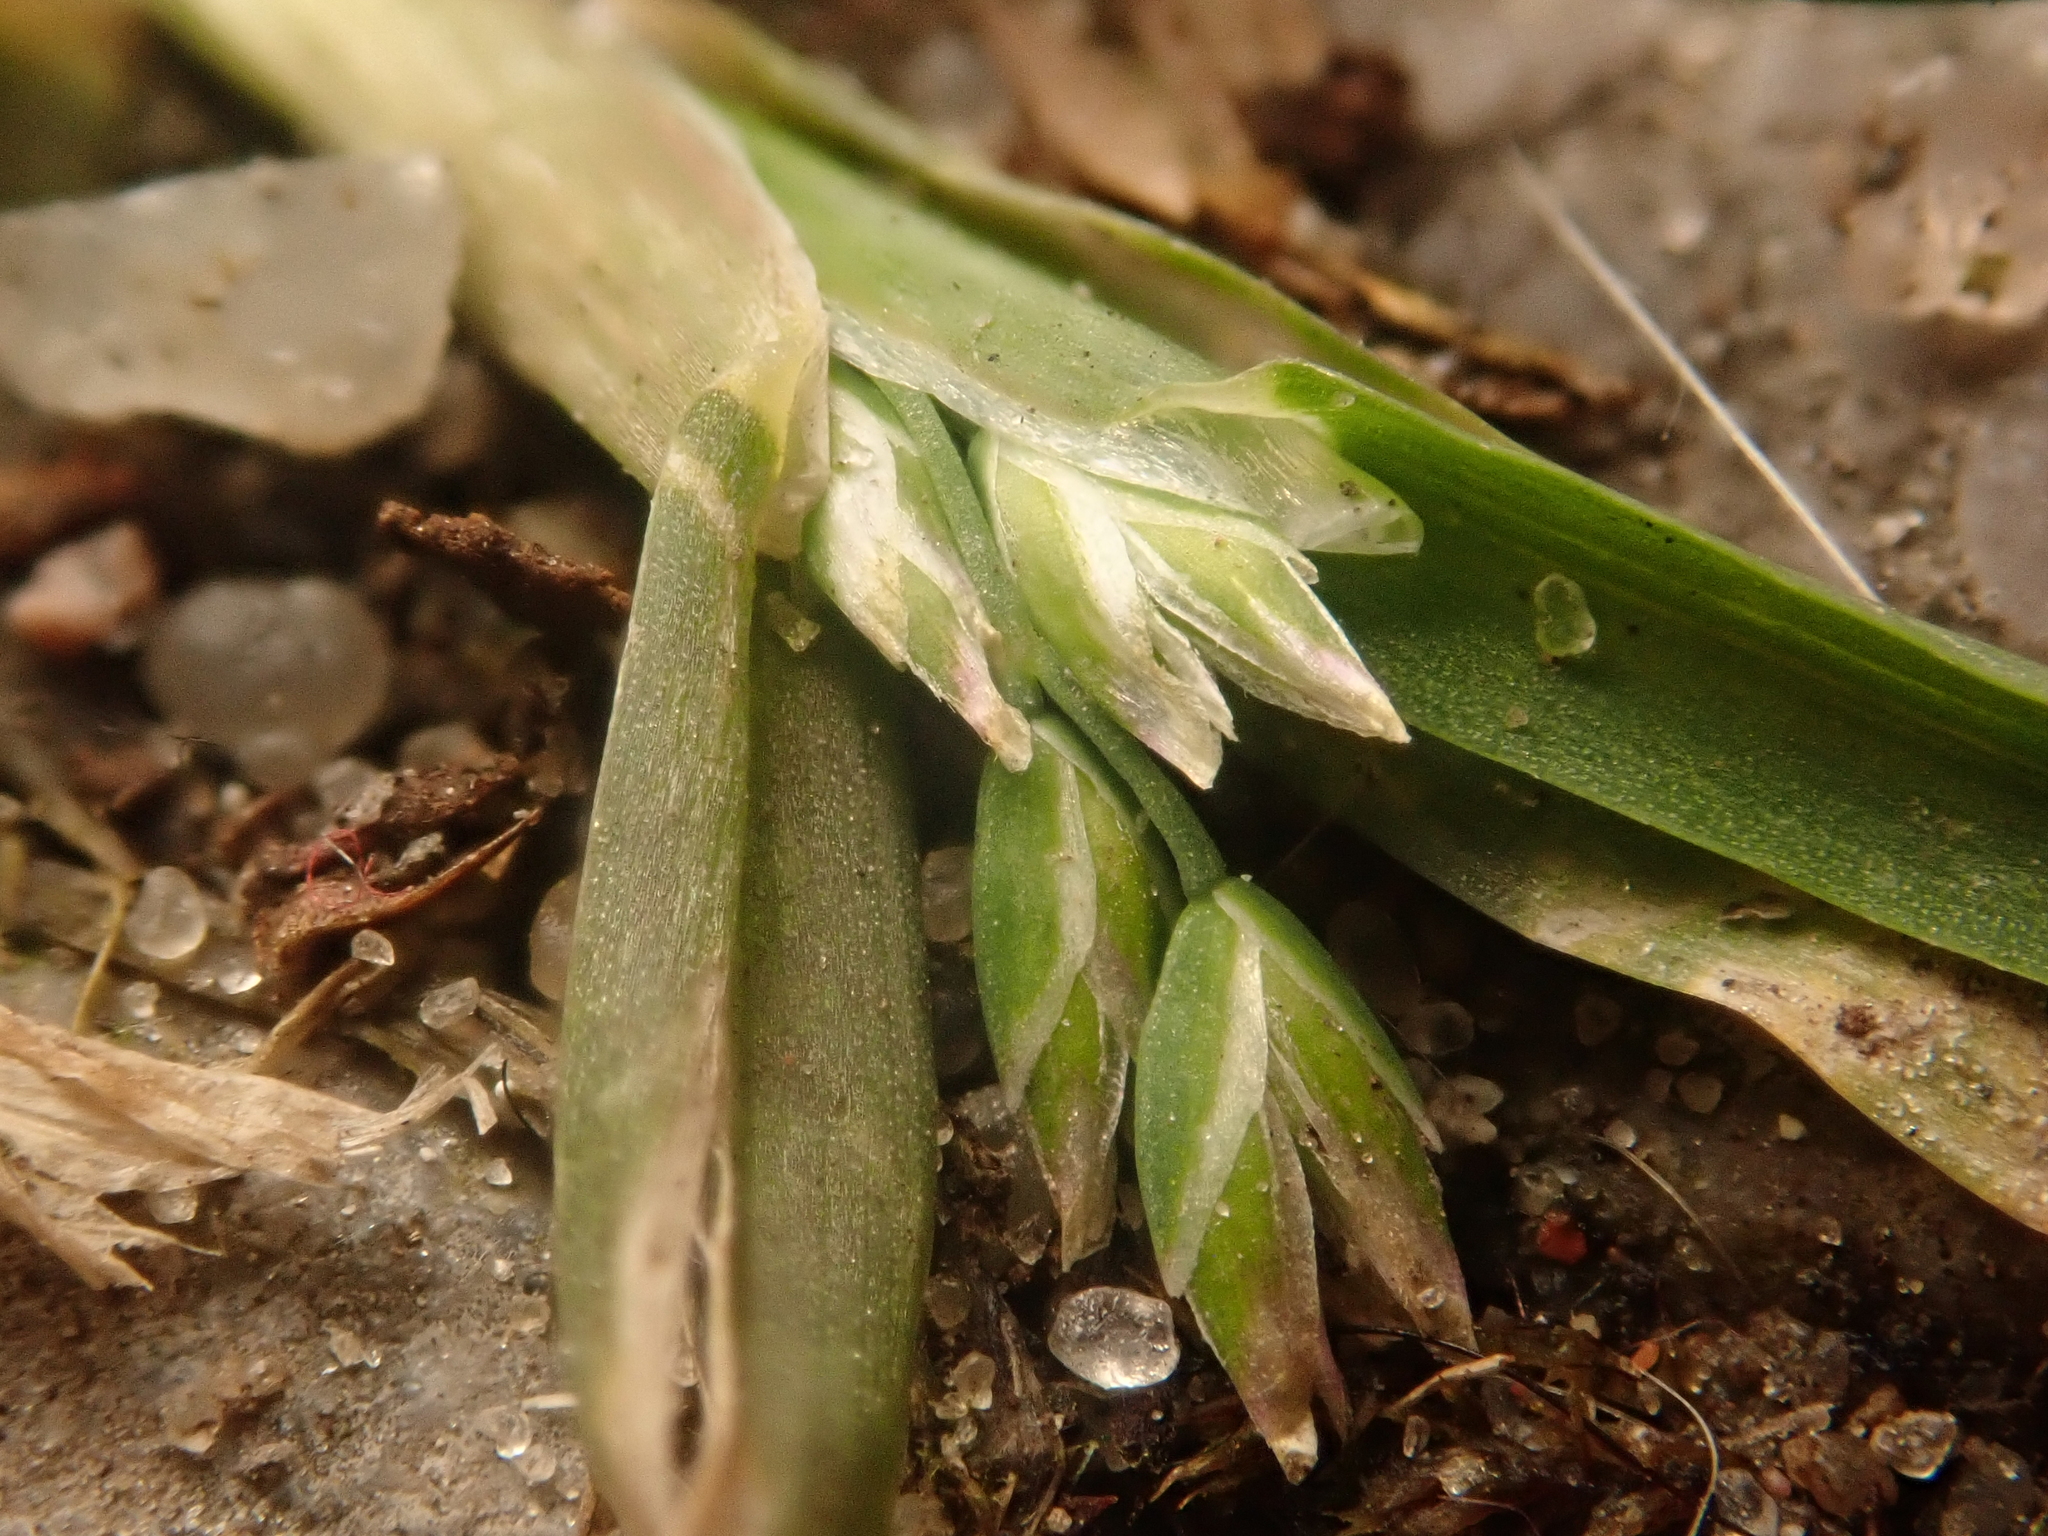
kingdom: Plantae
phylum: Tracheophyta
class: Liliopsida
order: Poales
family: Poaceae
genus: Poa
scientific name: Poa annua
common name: Annual bluegrass
